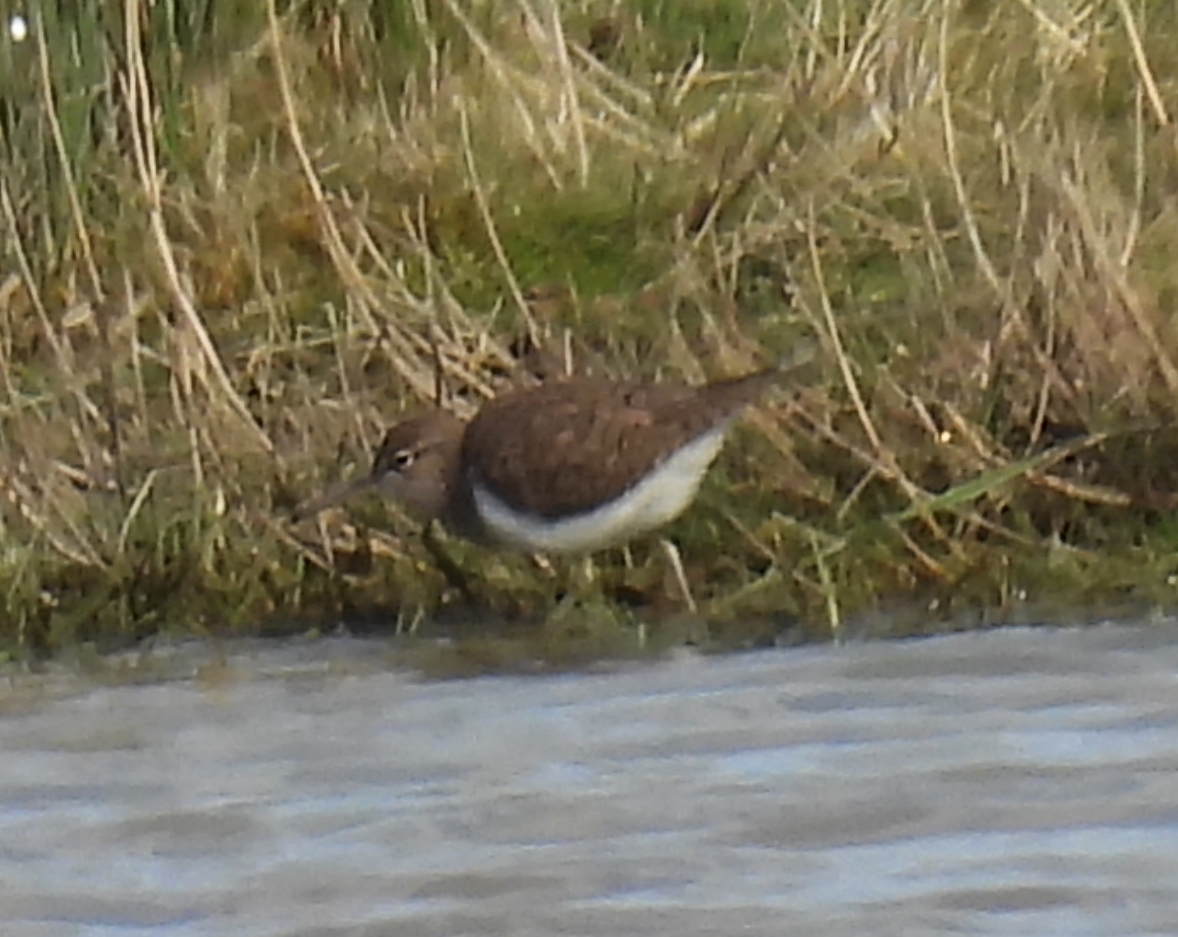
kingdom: Animalia
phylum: Chordata
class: Aves
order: Charadriiformes
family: Scolopacidae
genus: Actitis
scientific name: Actitis hypoleucos
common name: Common sandpiper
